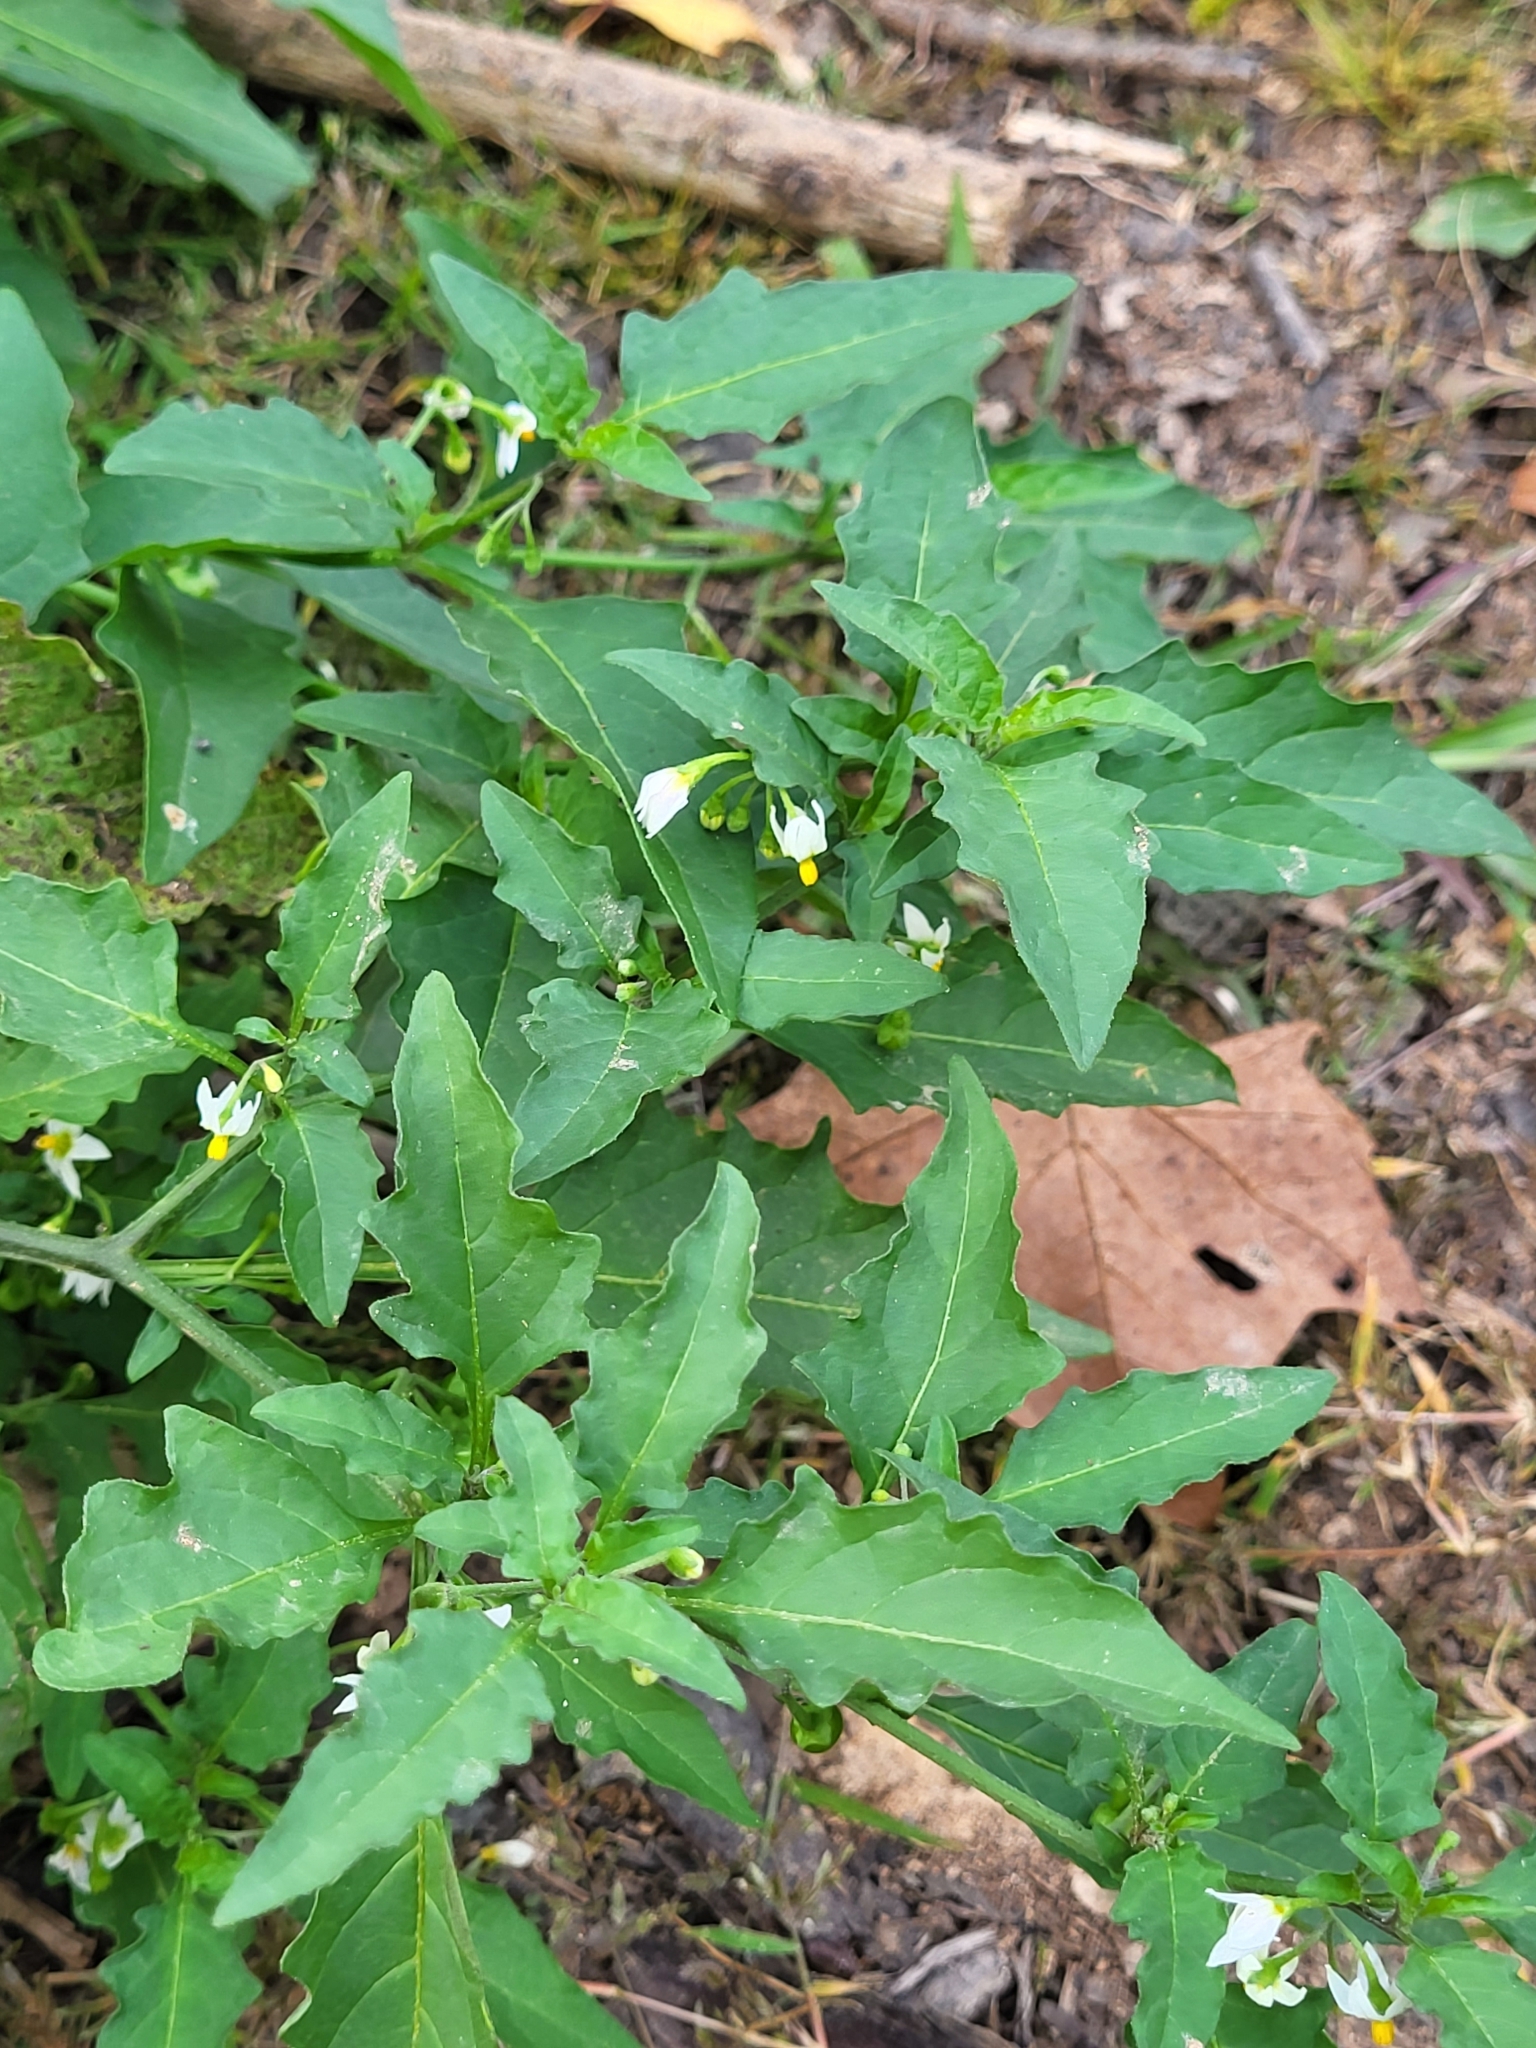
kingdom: Plantae
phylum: Tracheophyta
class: Magnoliopsida
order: Solanales
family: Solanaceae
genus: Solanum
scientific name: Solanum emulans
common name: Eastern black nightshade
